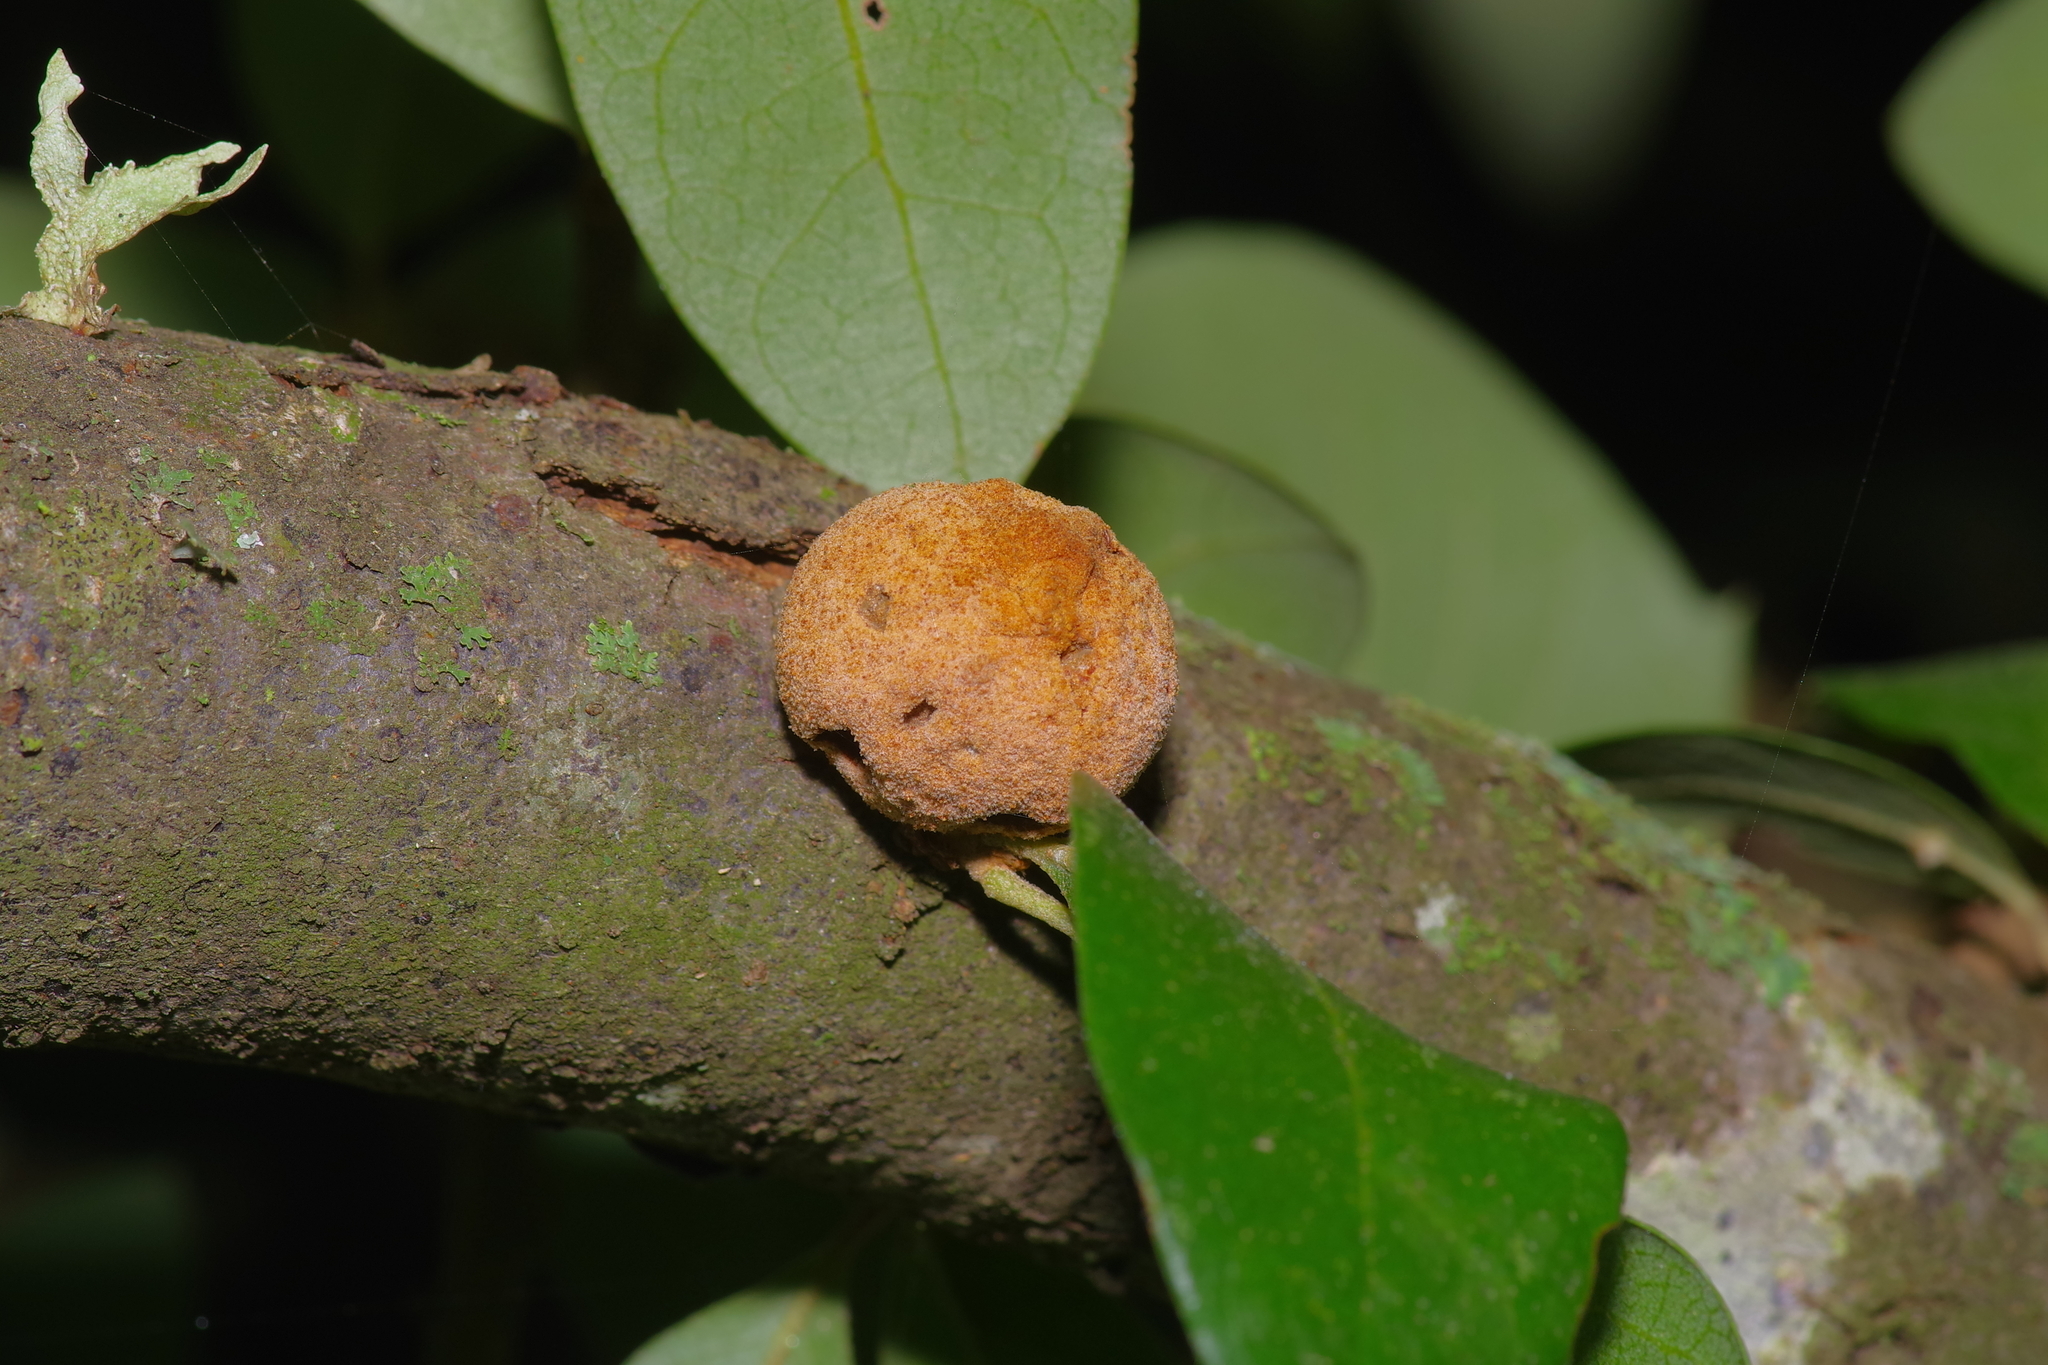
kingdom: Animalia
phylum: Arthropoda
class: Insecta
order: Hymenoptera
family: Cynipidae
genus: Disholcaspis
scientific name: Disholcaspis
